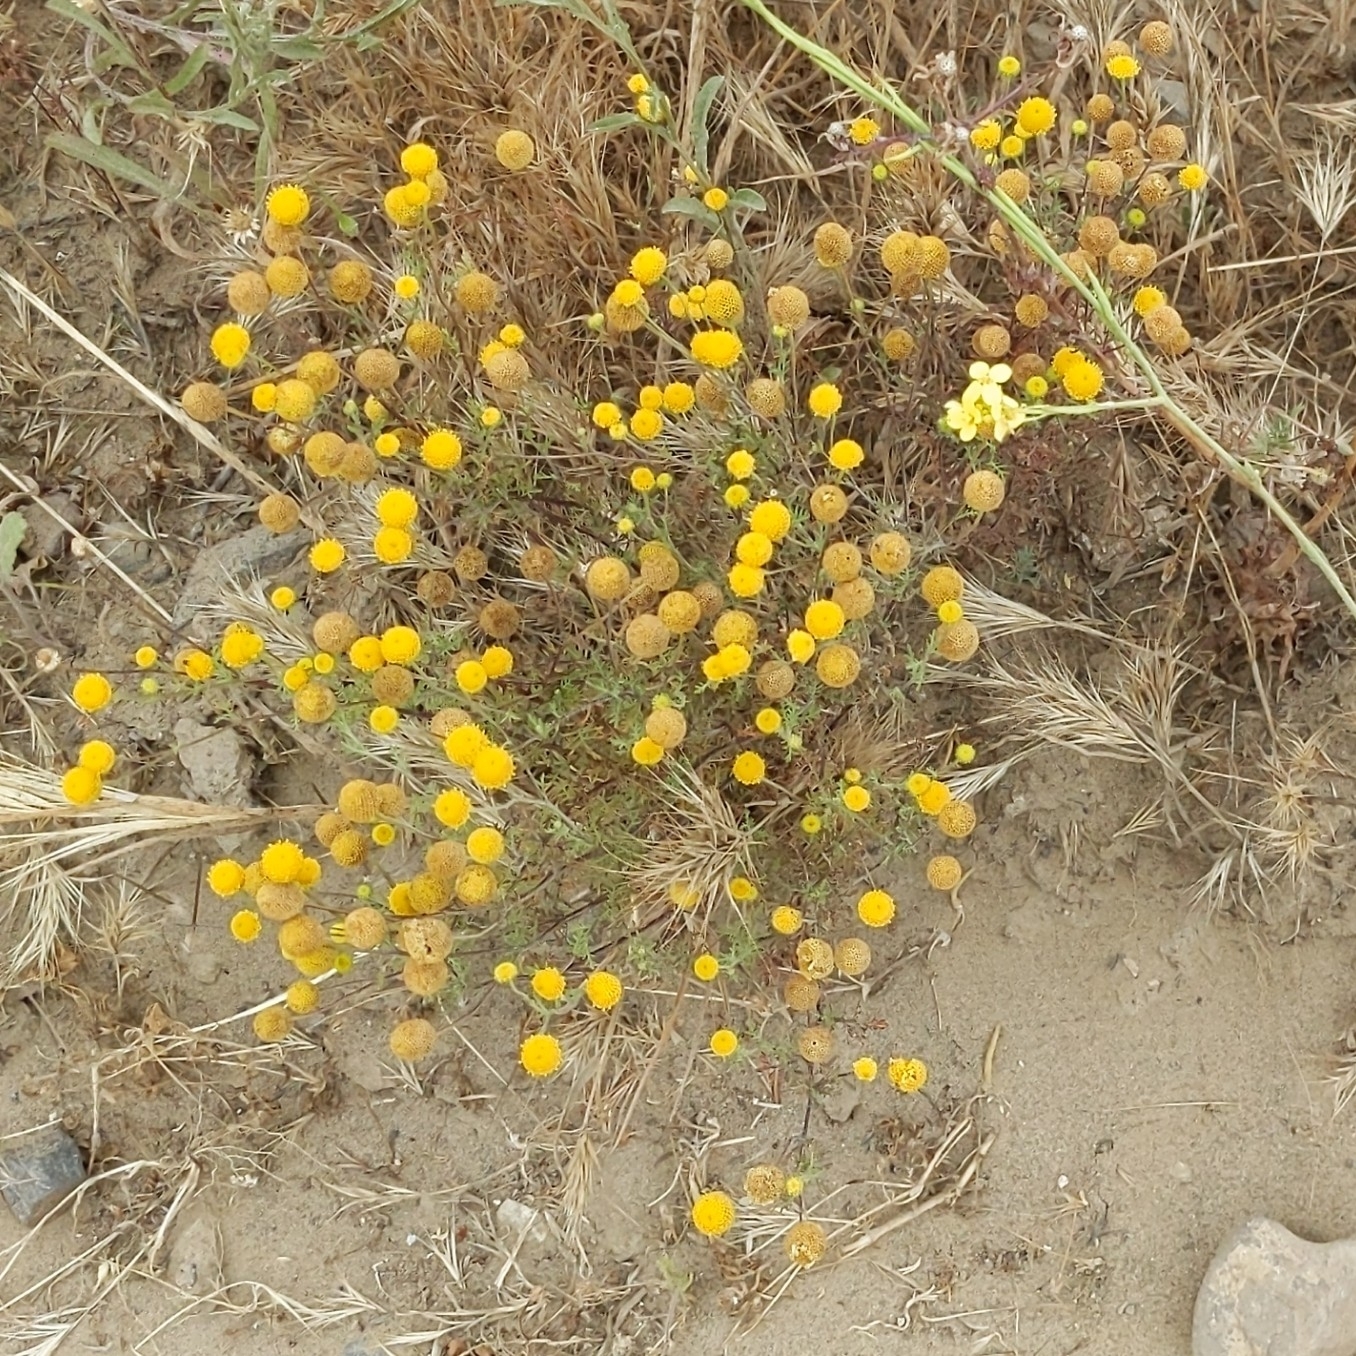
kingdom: Plantae
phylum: Tracheophyta
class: Magnoliopsida
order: Asterales
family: Asteraceae
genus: Oncosiphon
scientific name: Oncosiphon pilulifer
